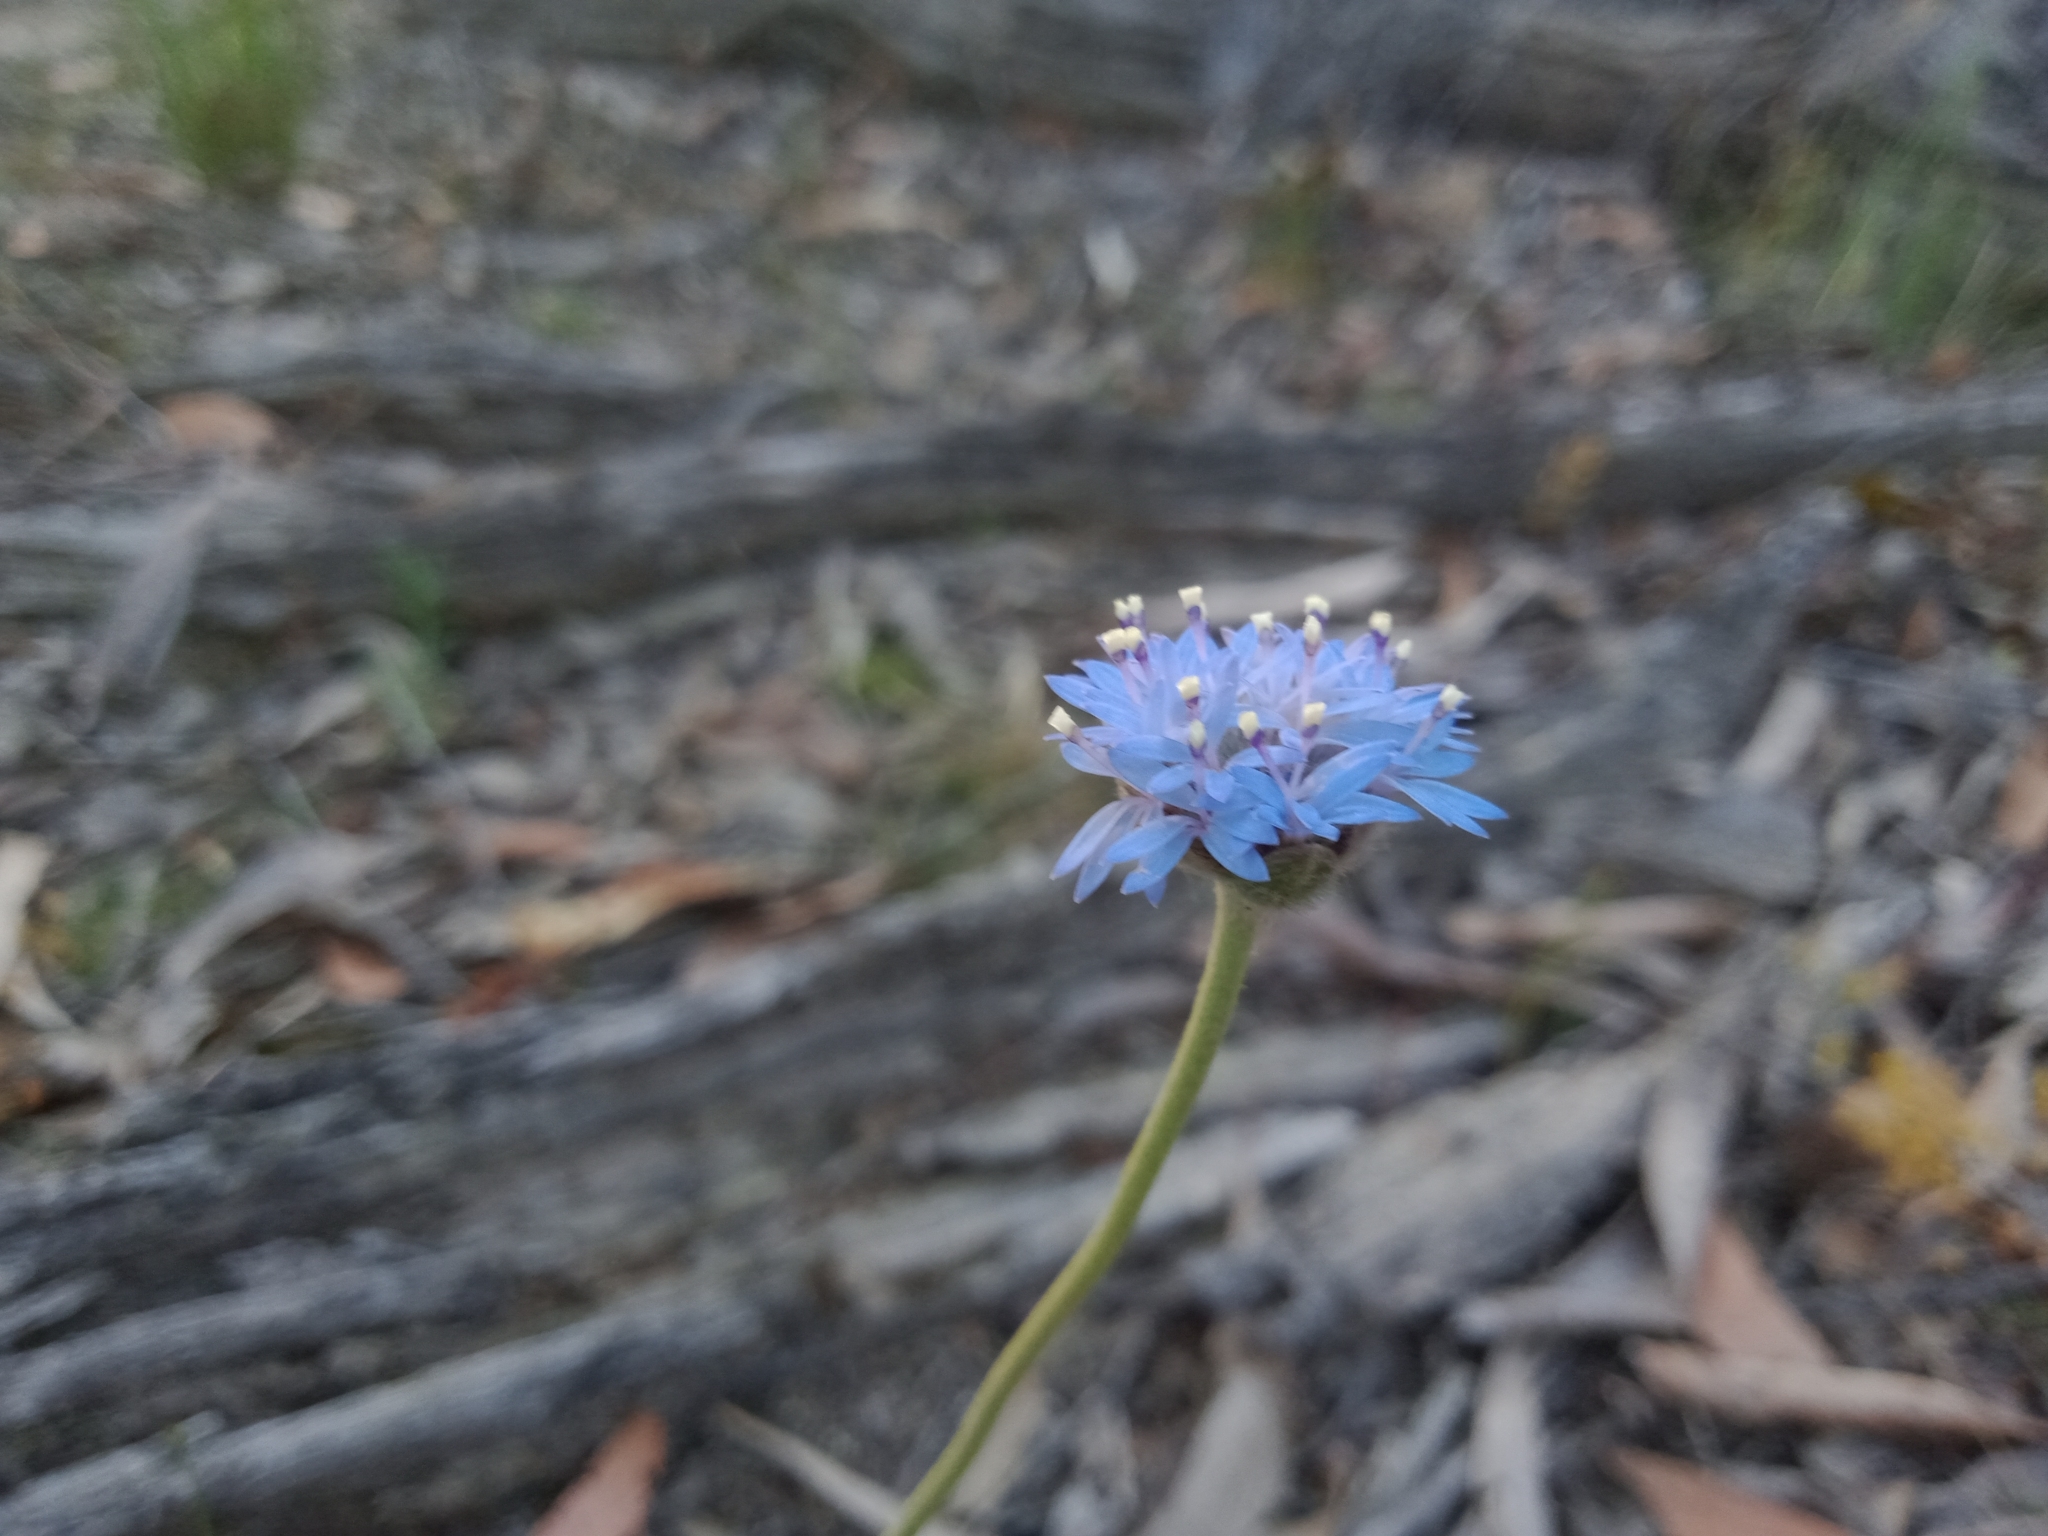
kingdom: Plantae
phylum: Tracheophyta
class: Magnoliopsida
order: Asterales
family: Goodeniaceae
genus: Brunonia
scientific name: Brunonia australis
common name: Blue pincushion
